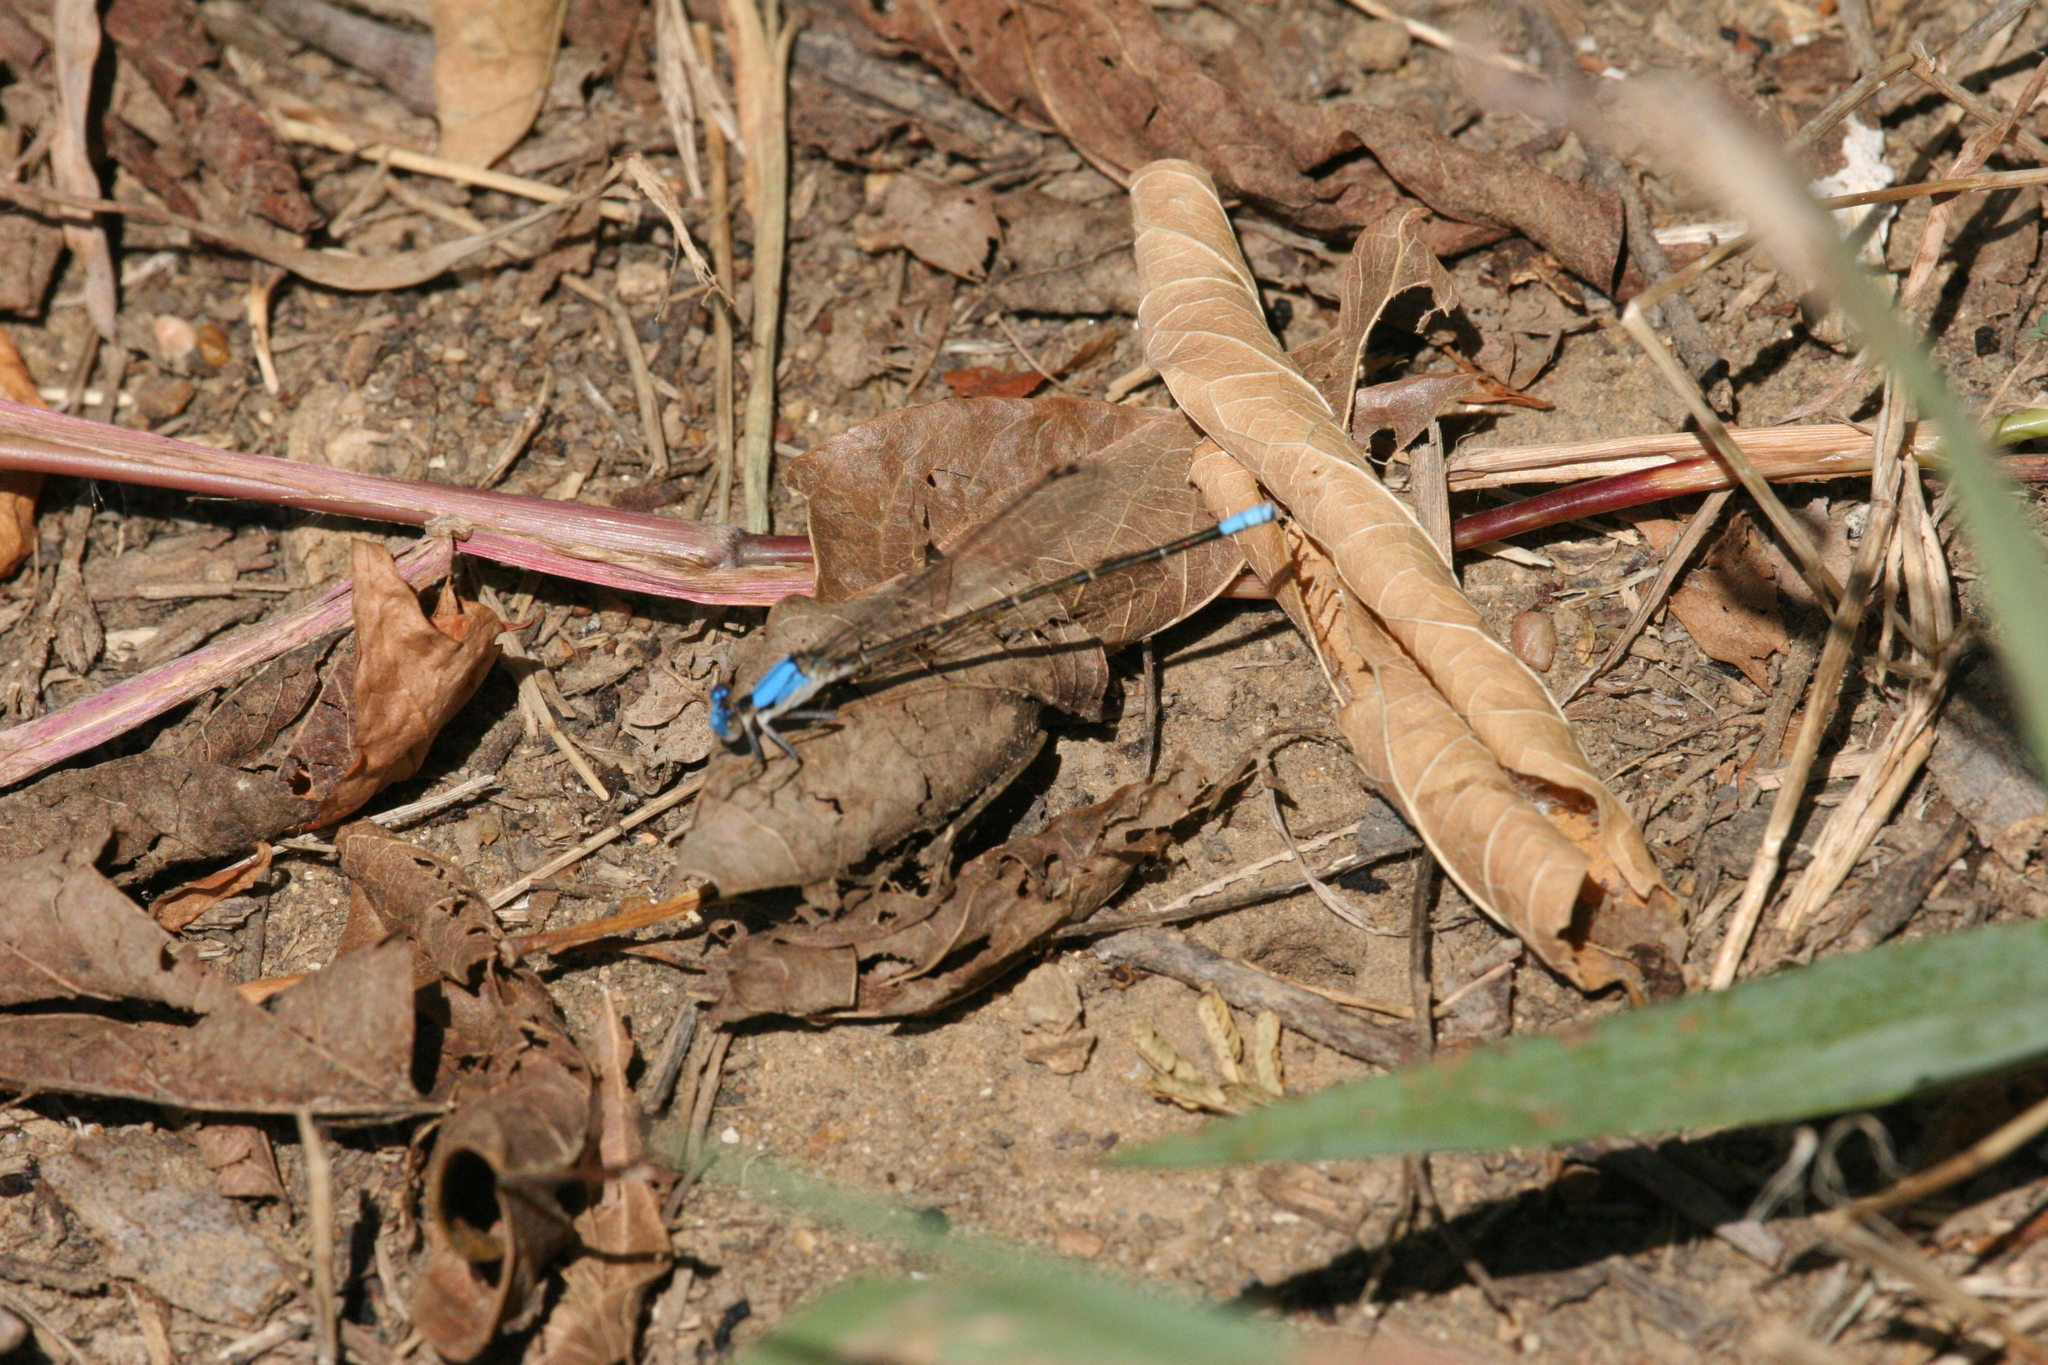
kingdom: Animalia
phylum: Arthropoda
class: Insecta
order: Odonata
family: Coenagrionidae
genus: Argia
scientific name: Argia apicalis
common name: Blue-fronted dancer
